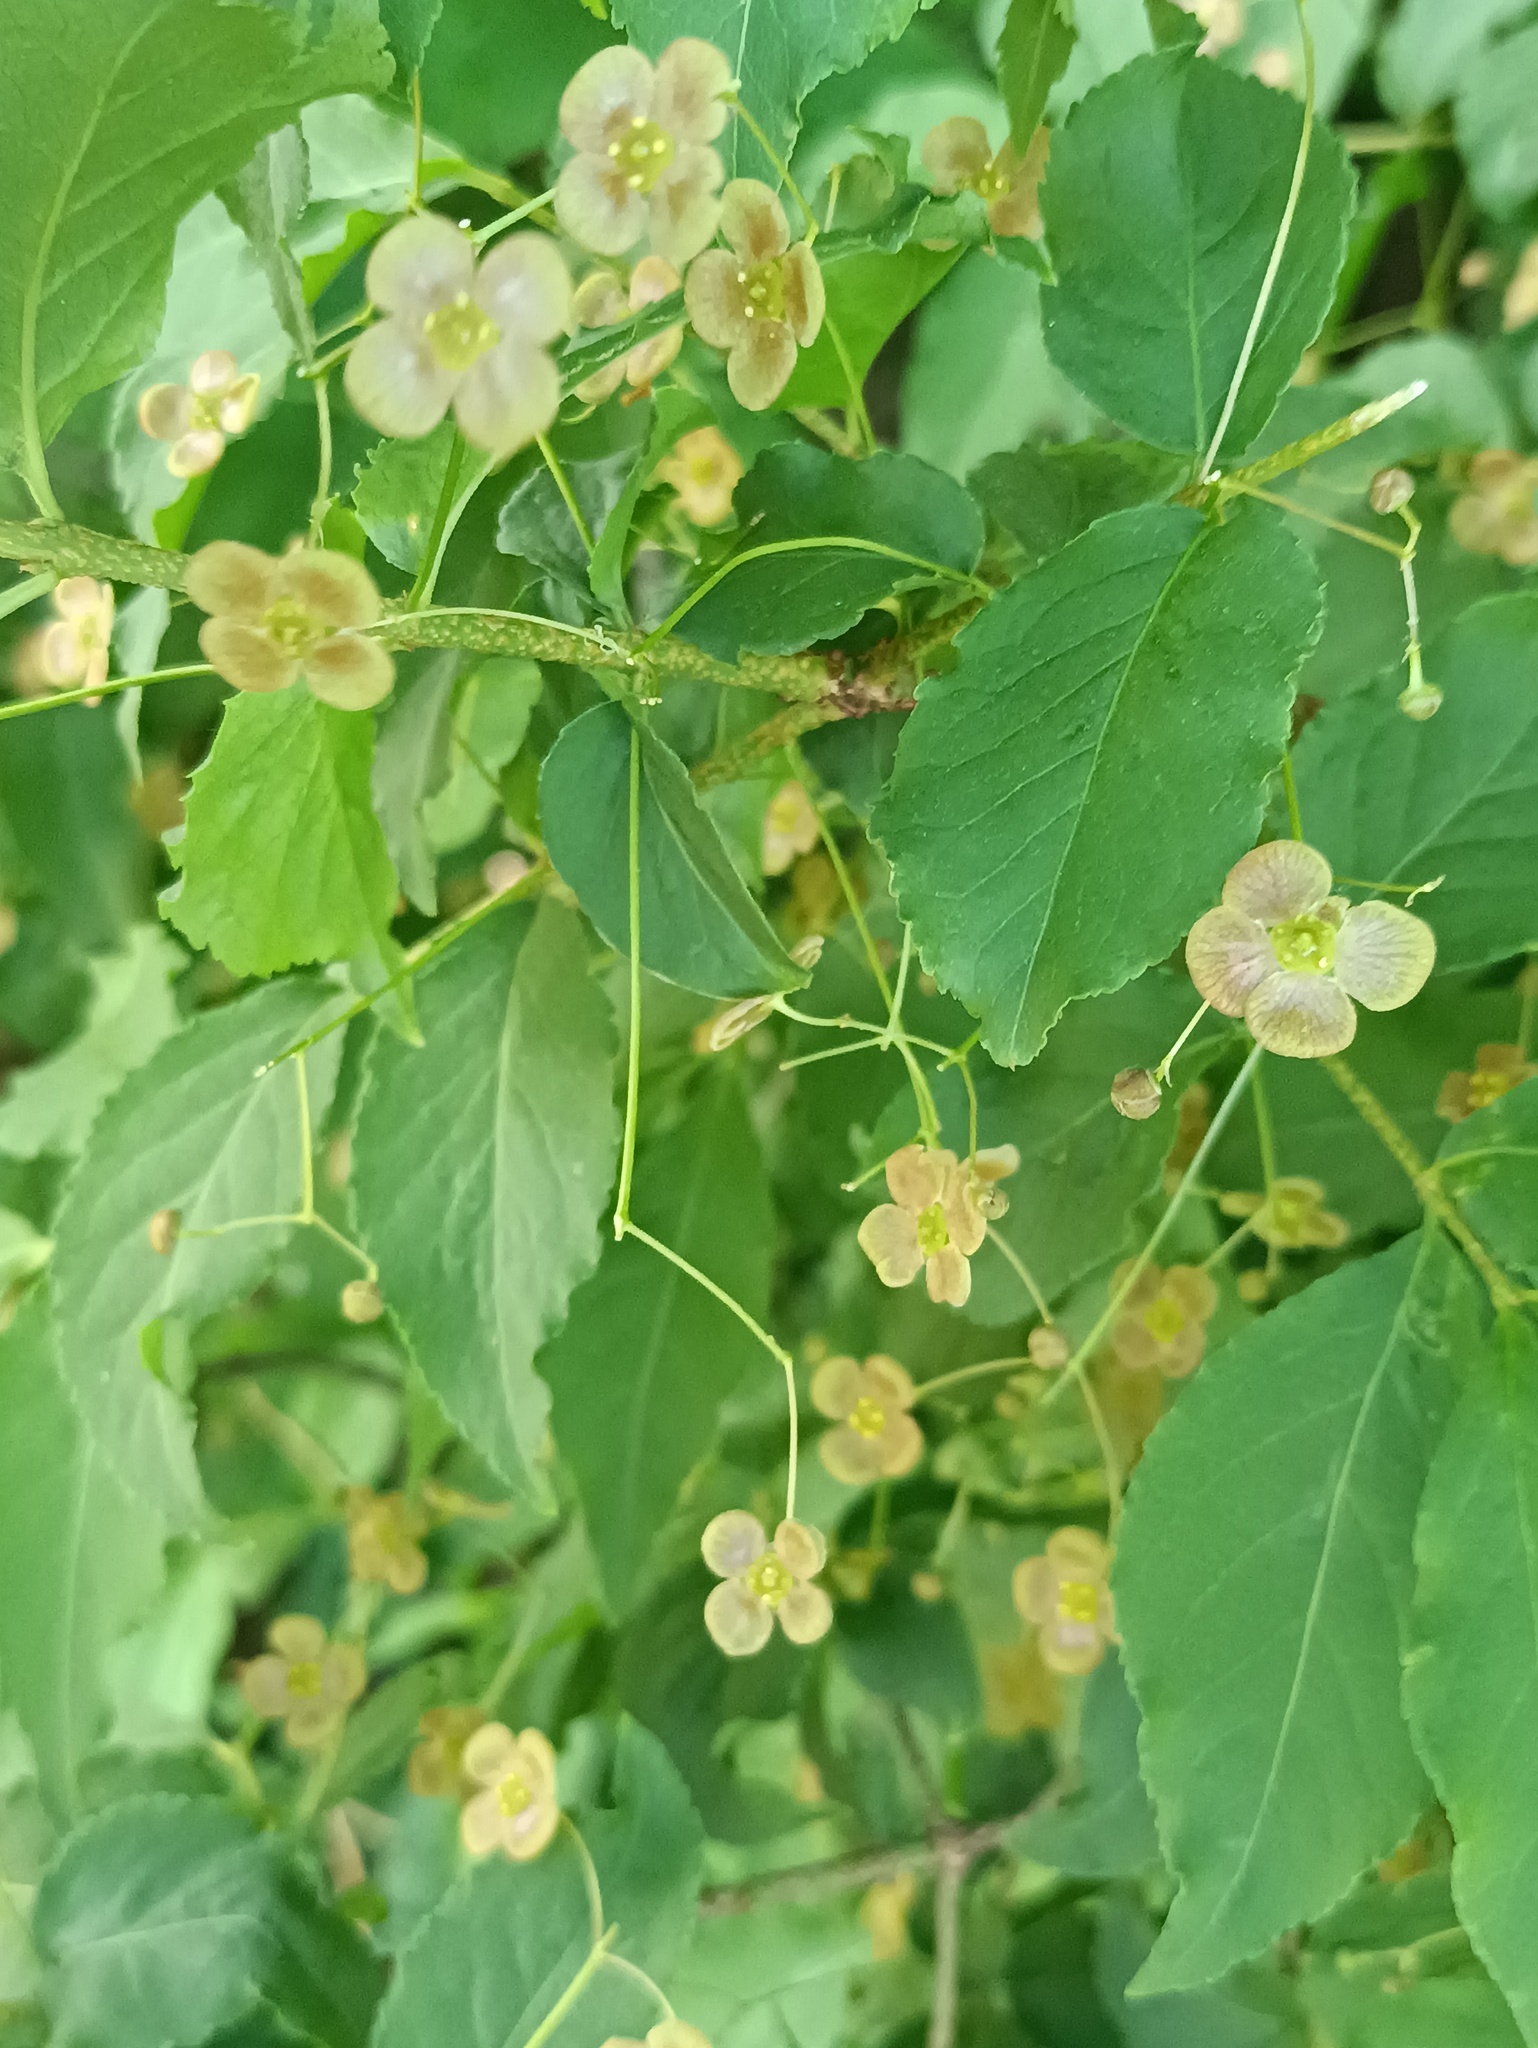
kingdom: Plantae
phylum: Tracheophyta
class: Magnoliopsida
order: Celastrales
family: Celastraceae
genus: Euonymus
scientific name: Euonymus verrucosus
